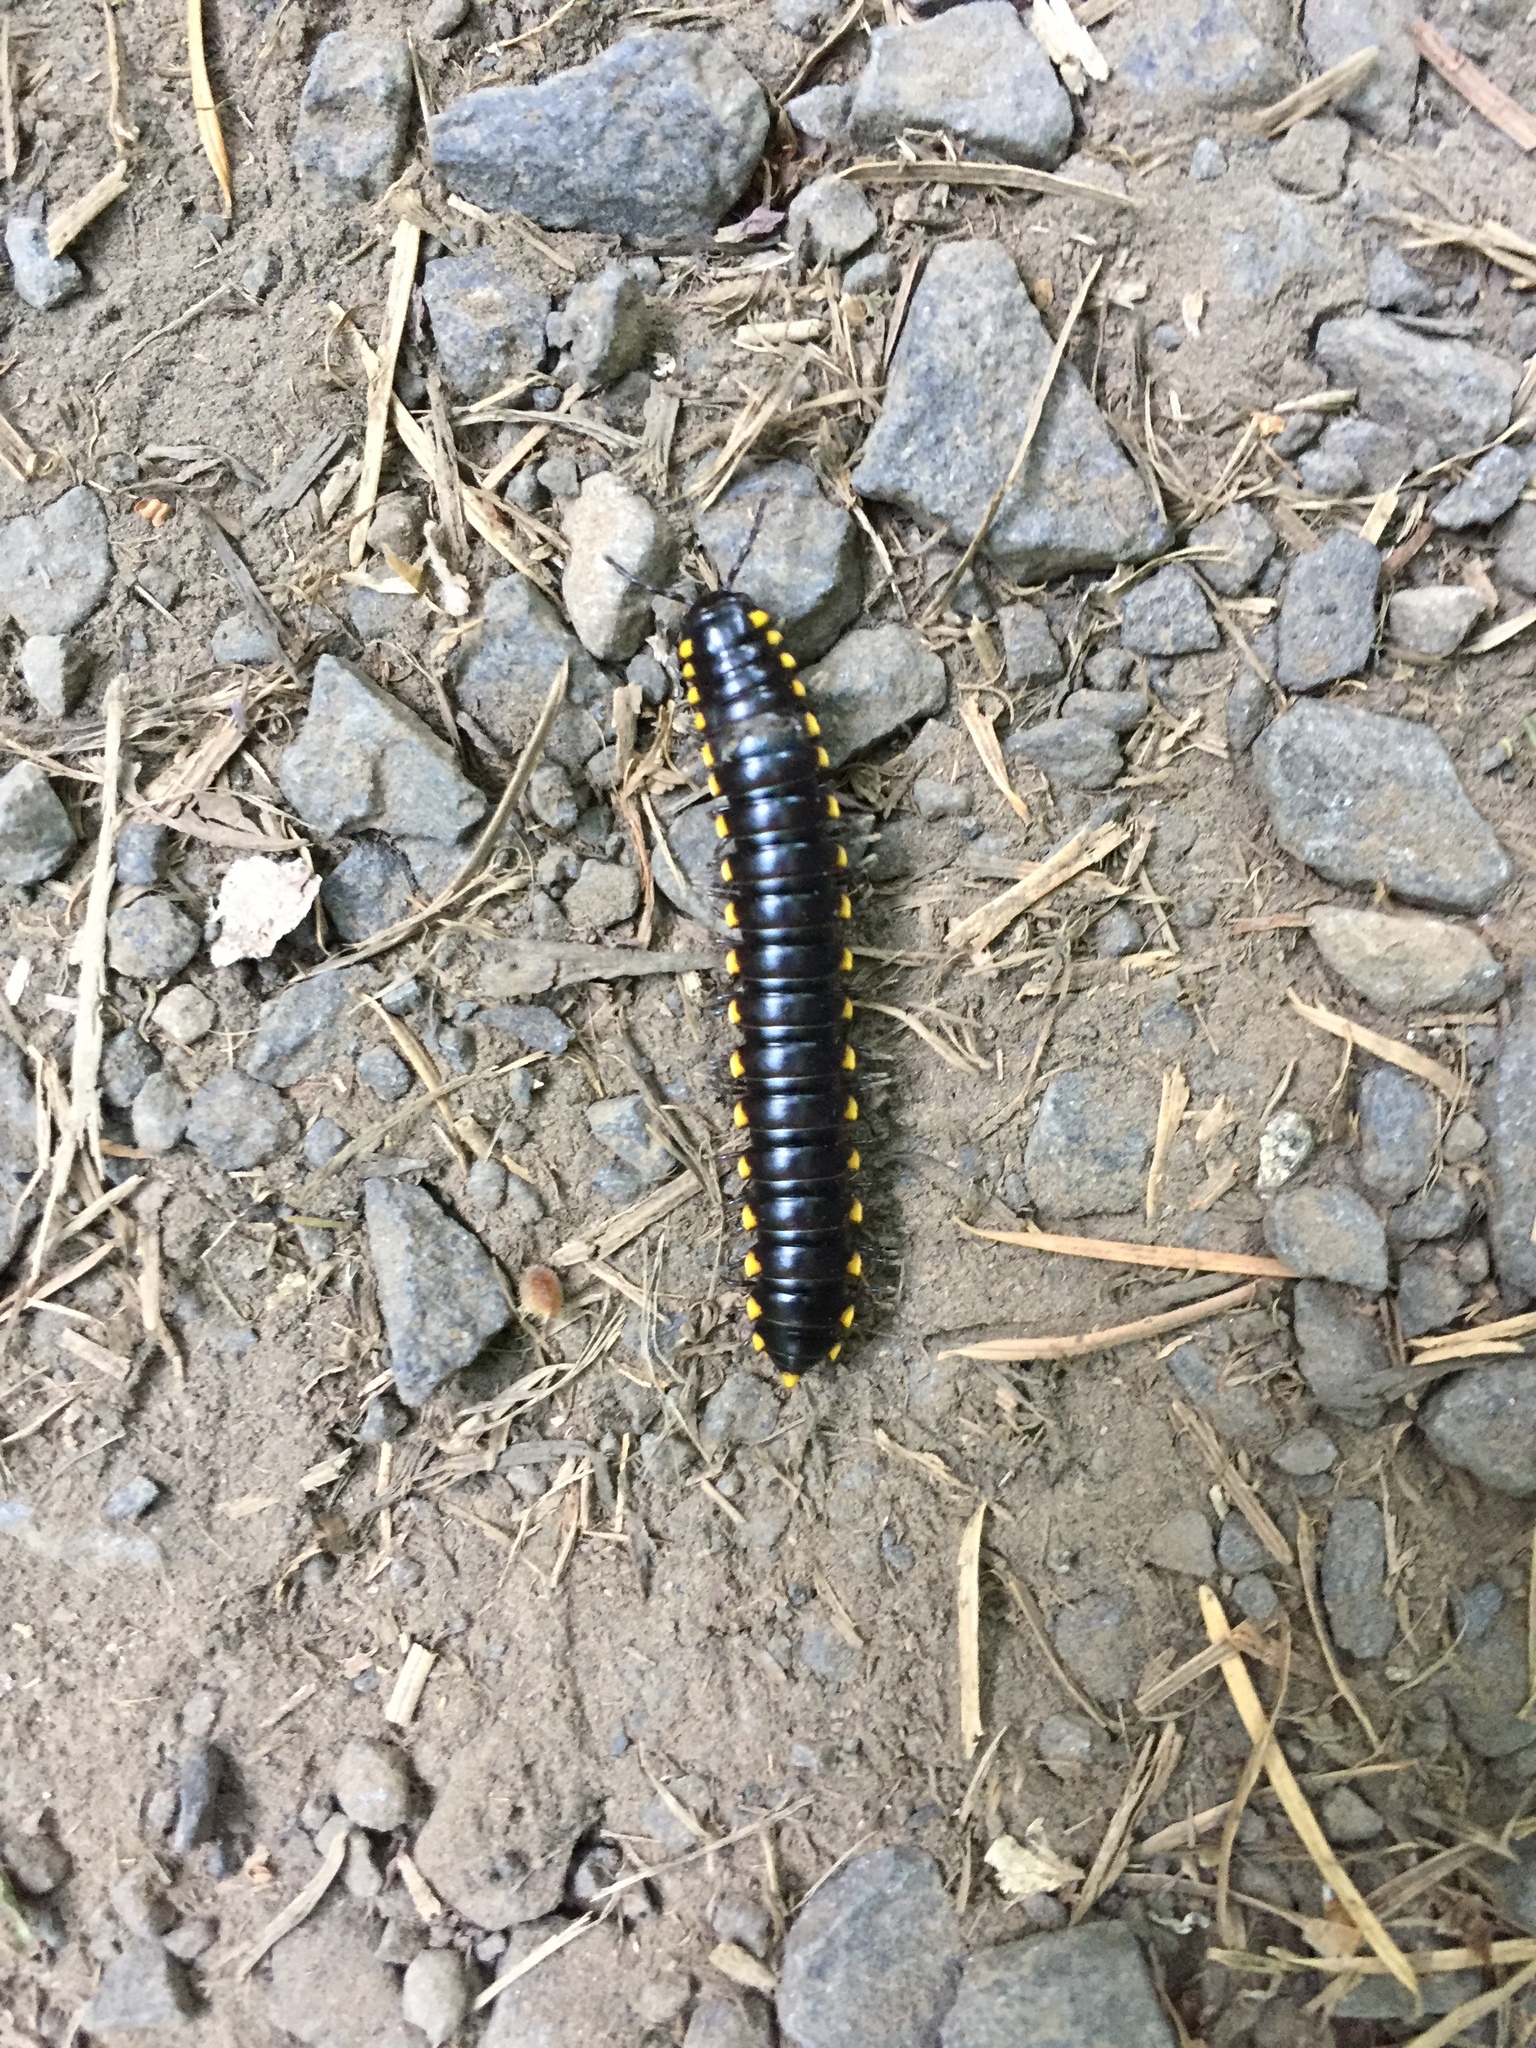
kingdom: Animalia
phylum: Arthropoda
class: Diplopoda
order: Polydesmida
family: Xystodesmidae
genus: Harpaphe
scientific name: Harpaphe haydeniana
